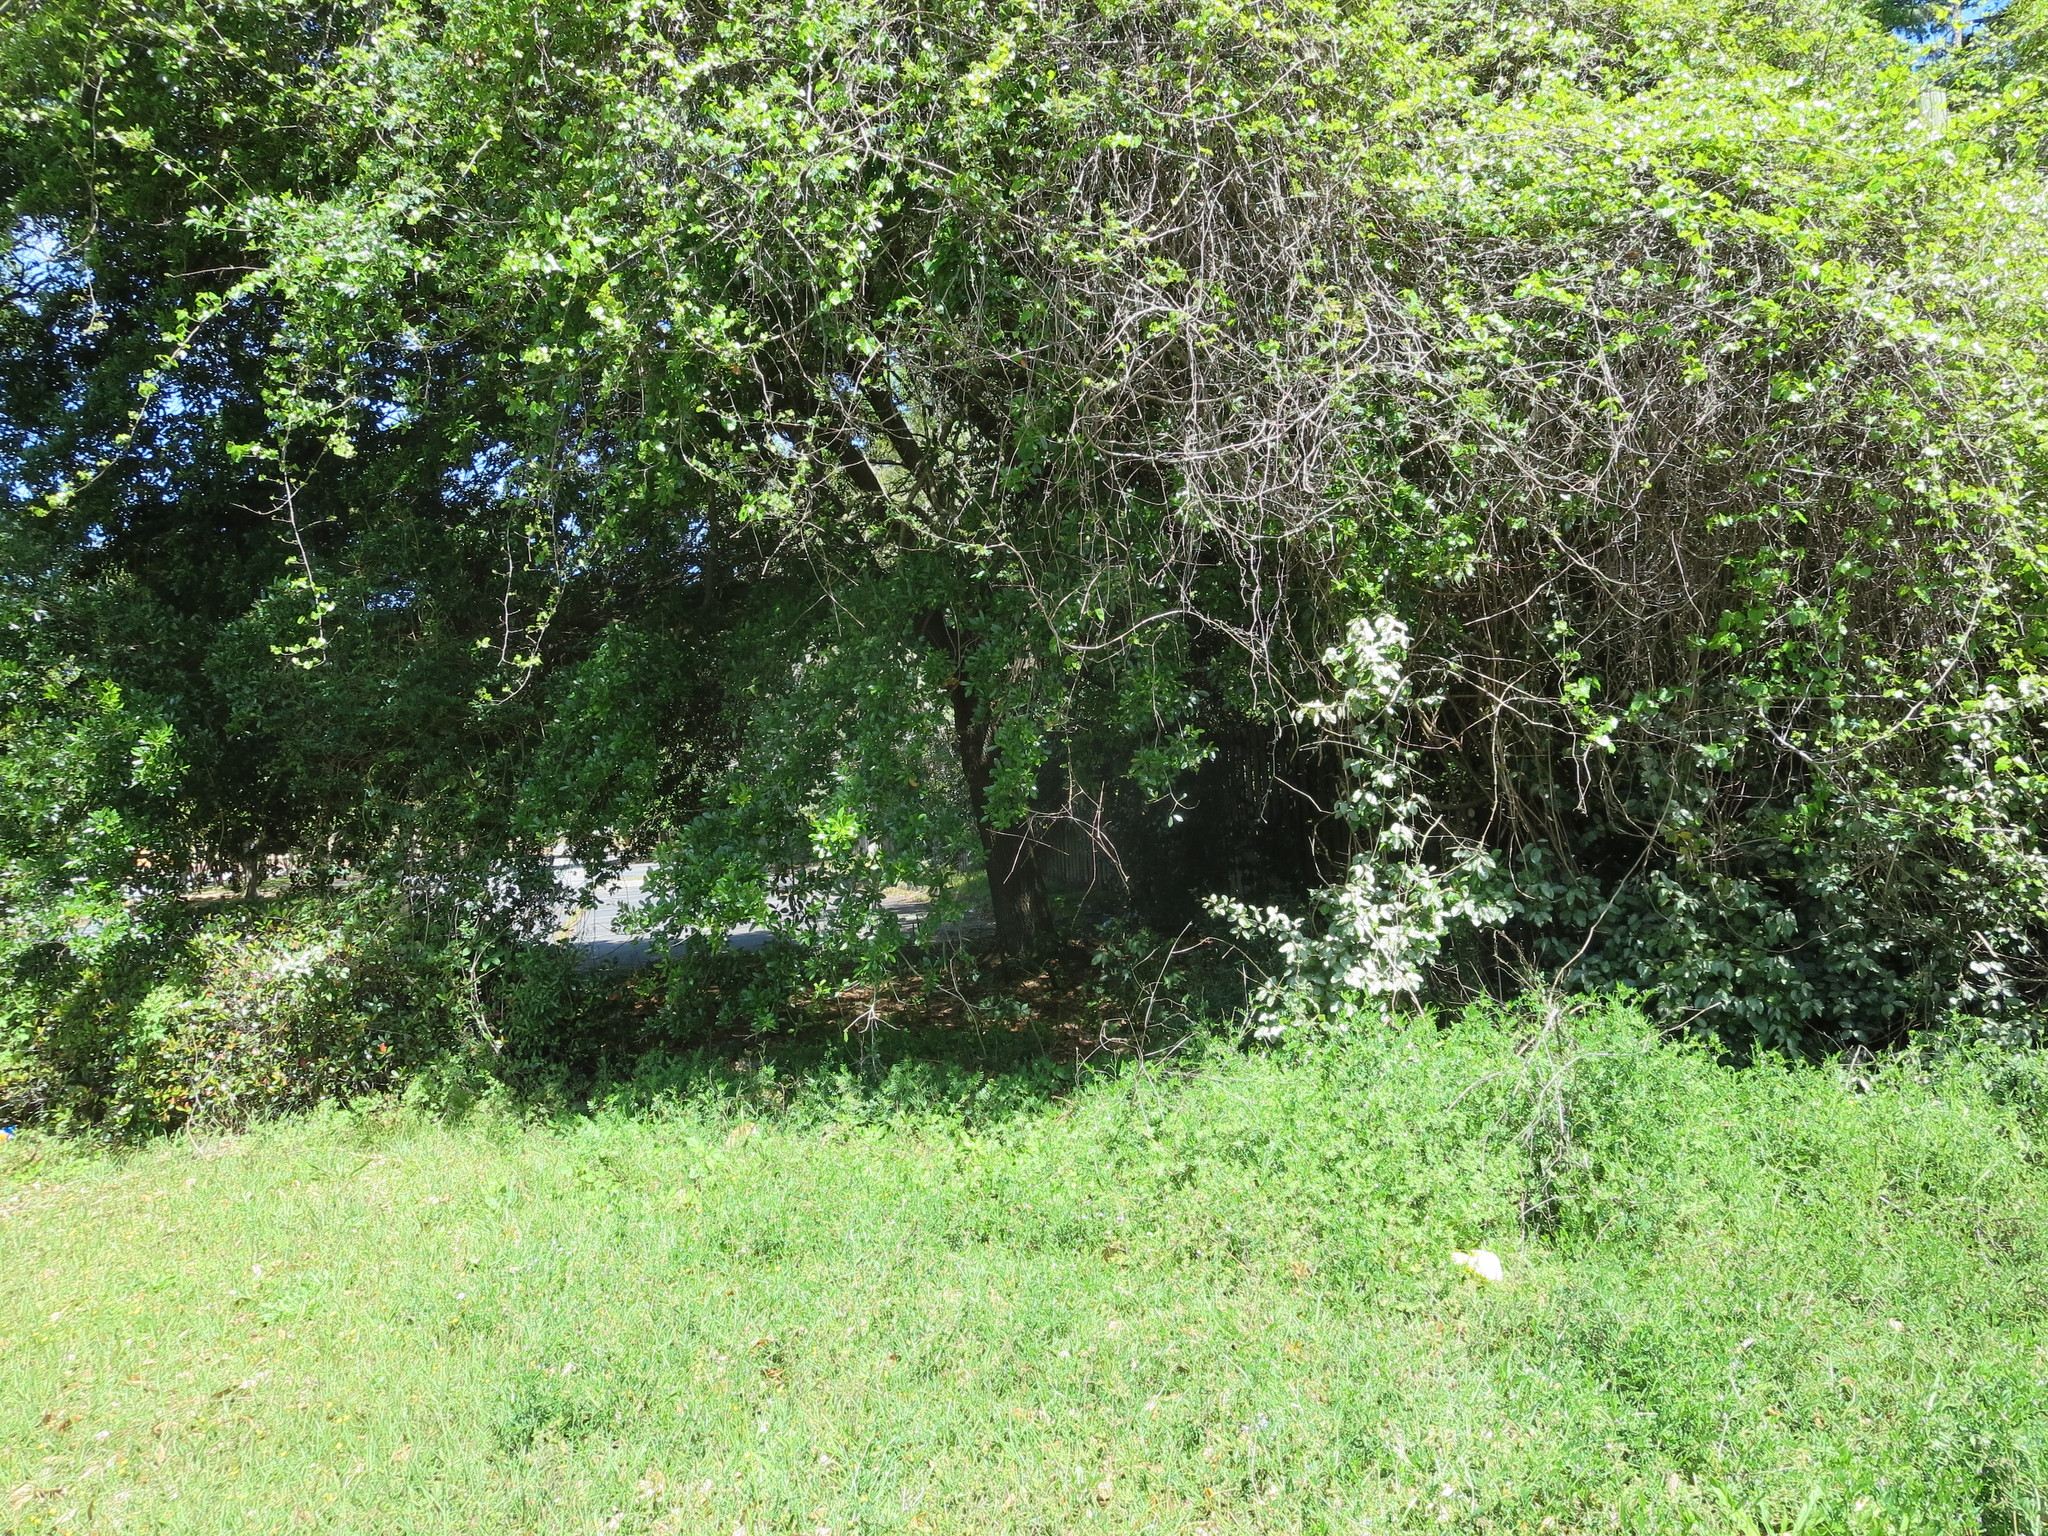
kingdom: Plantae
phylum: Tracheophyta
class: Magnoliopsida
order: Rosales
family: Elaeagnaceae
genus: Elaeagnus
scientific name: Elaeagnus pungens
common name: Spiny oleaster
